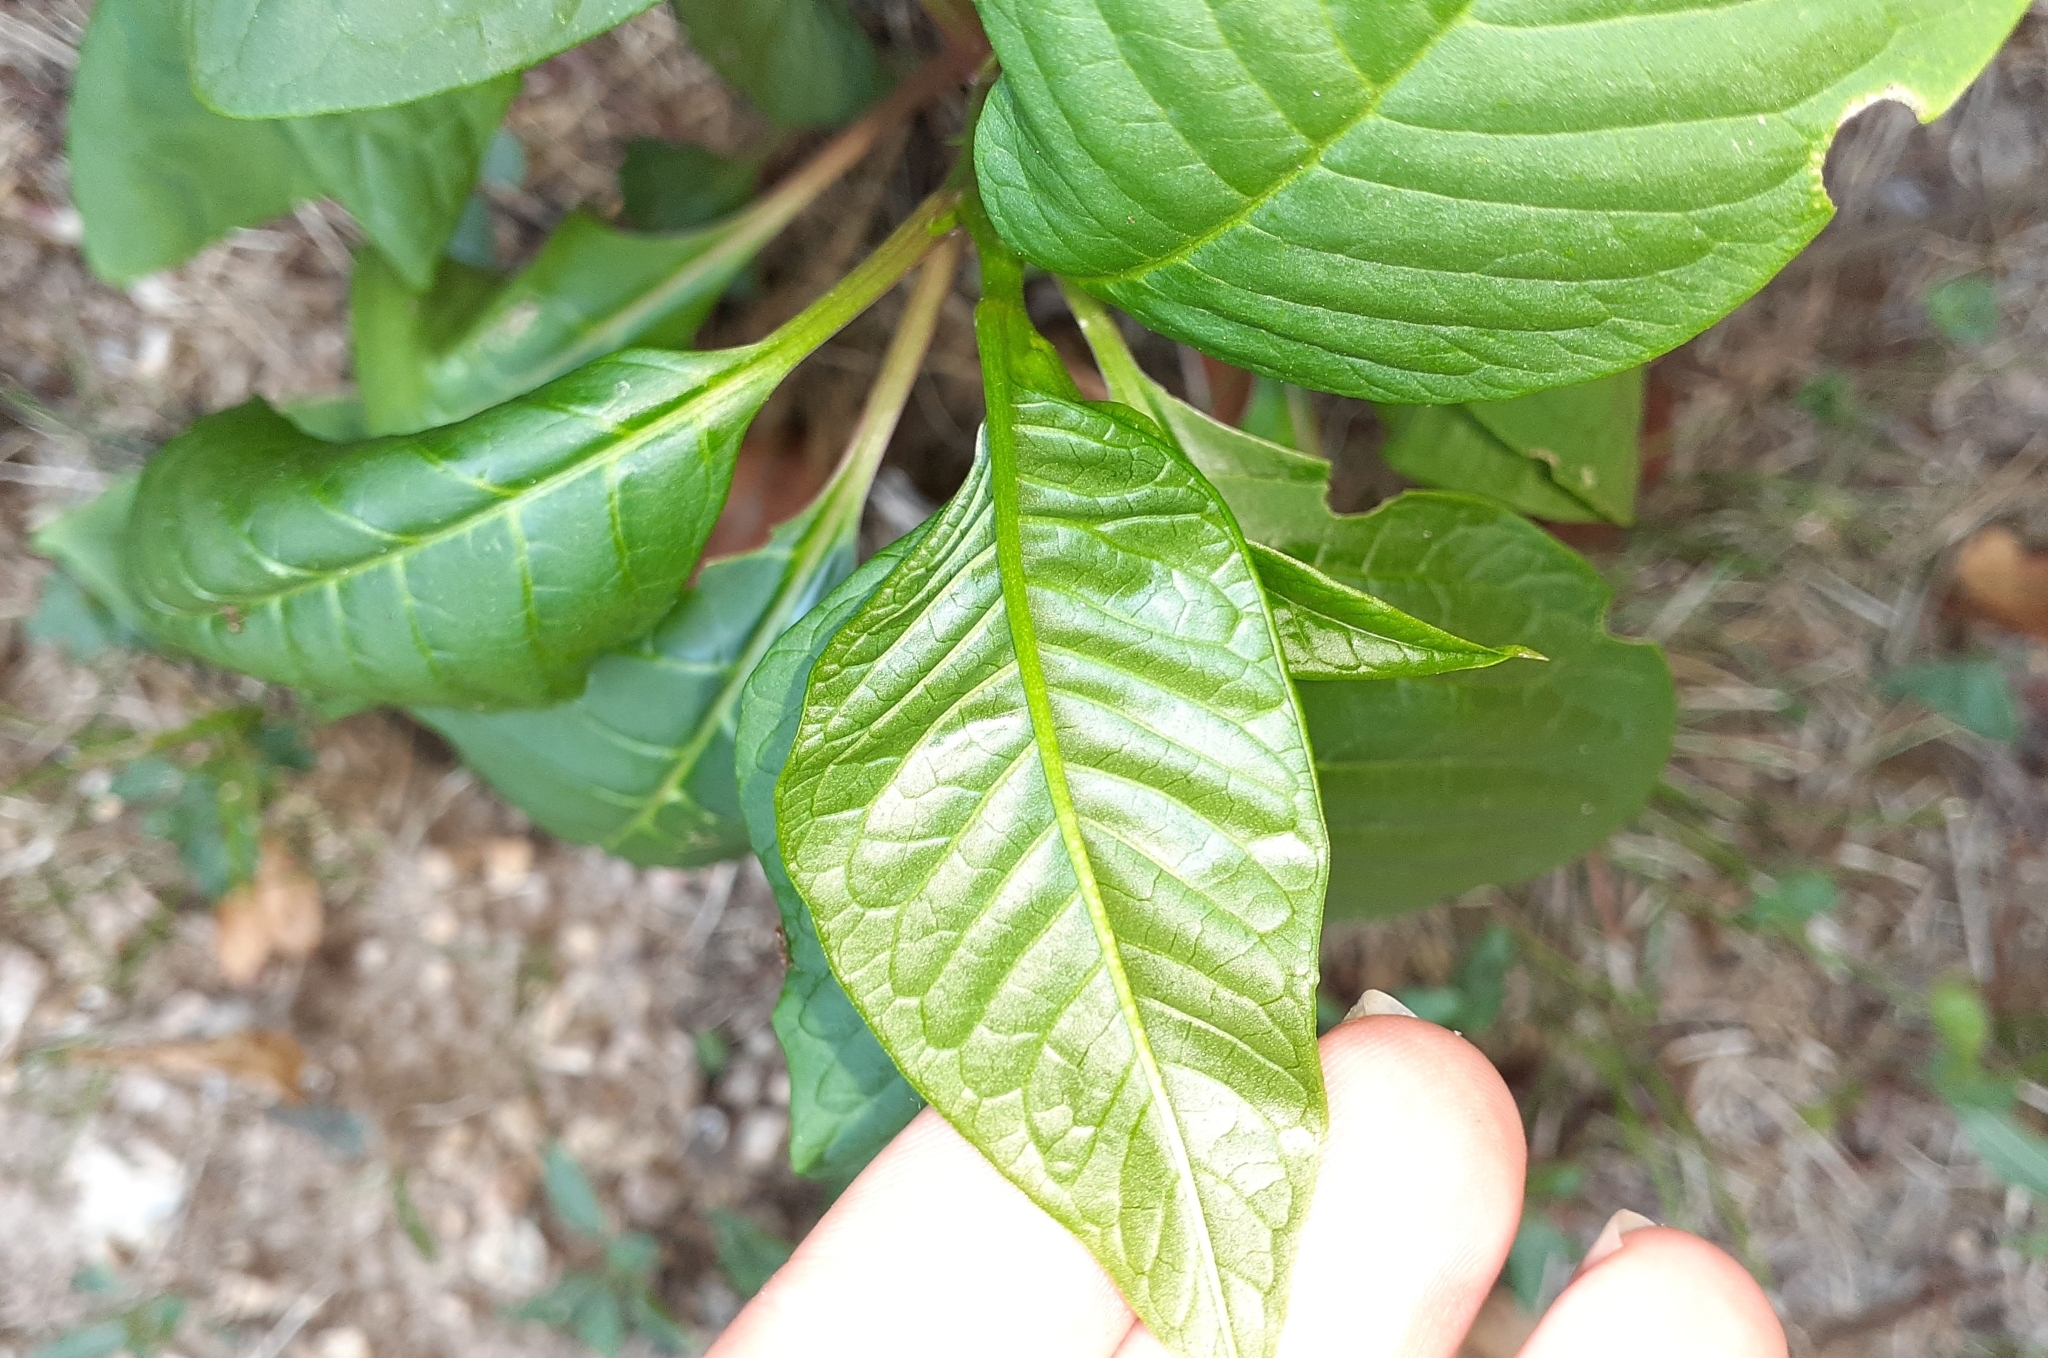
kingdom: Plantae
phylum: Tracheophyta
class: Magnoliopsida
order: Caryophyllales
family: Phytolaccaceae
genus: Phytolacca
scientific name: Phytolacca americana
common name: American pokeweed
